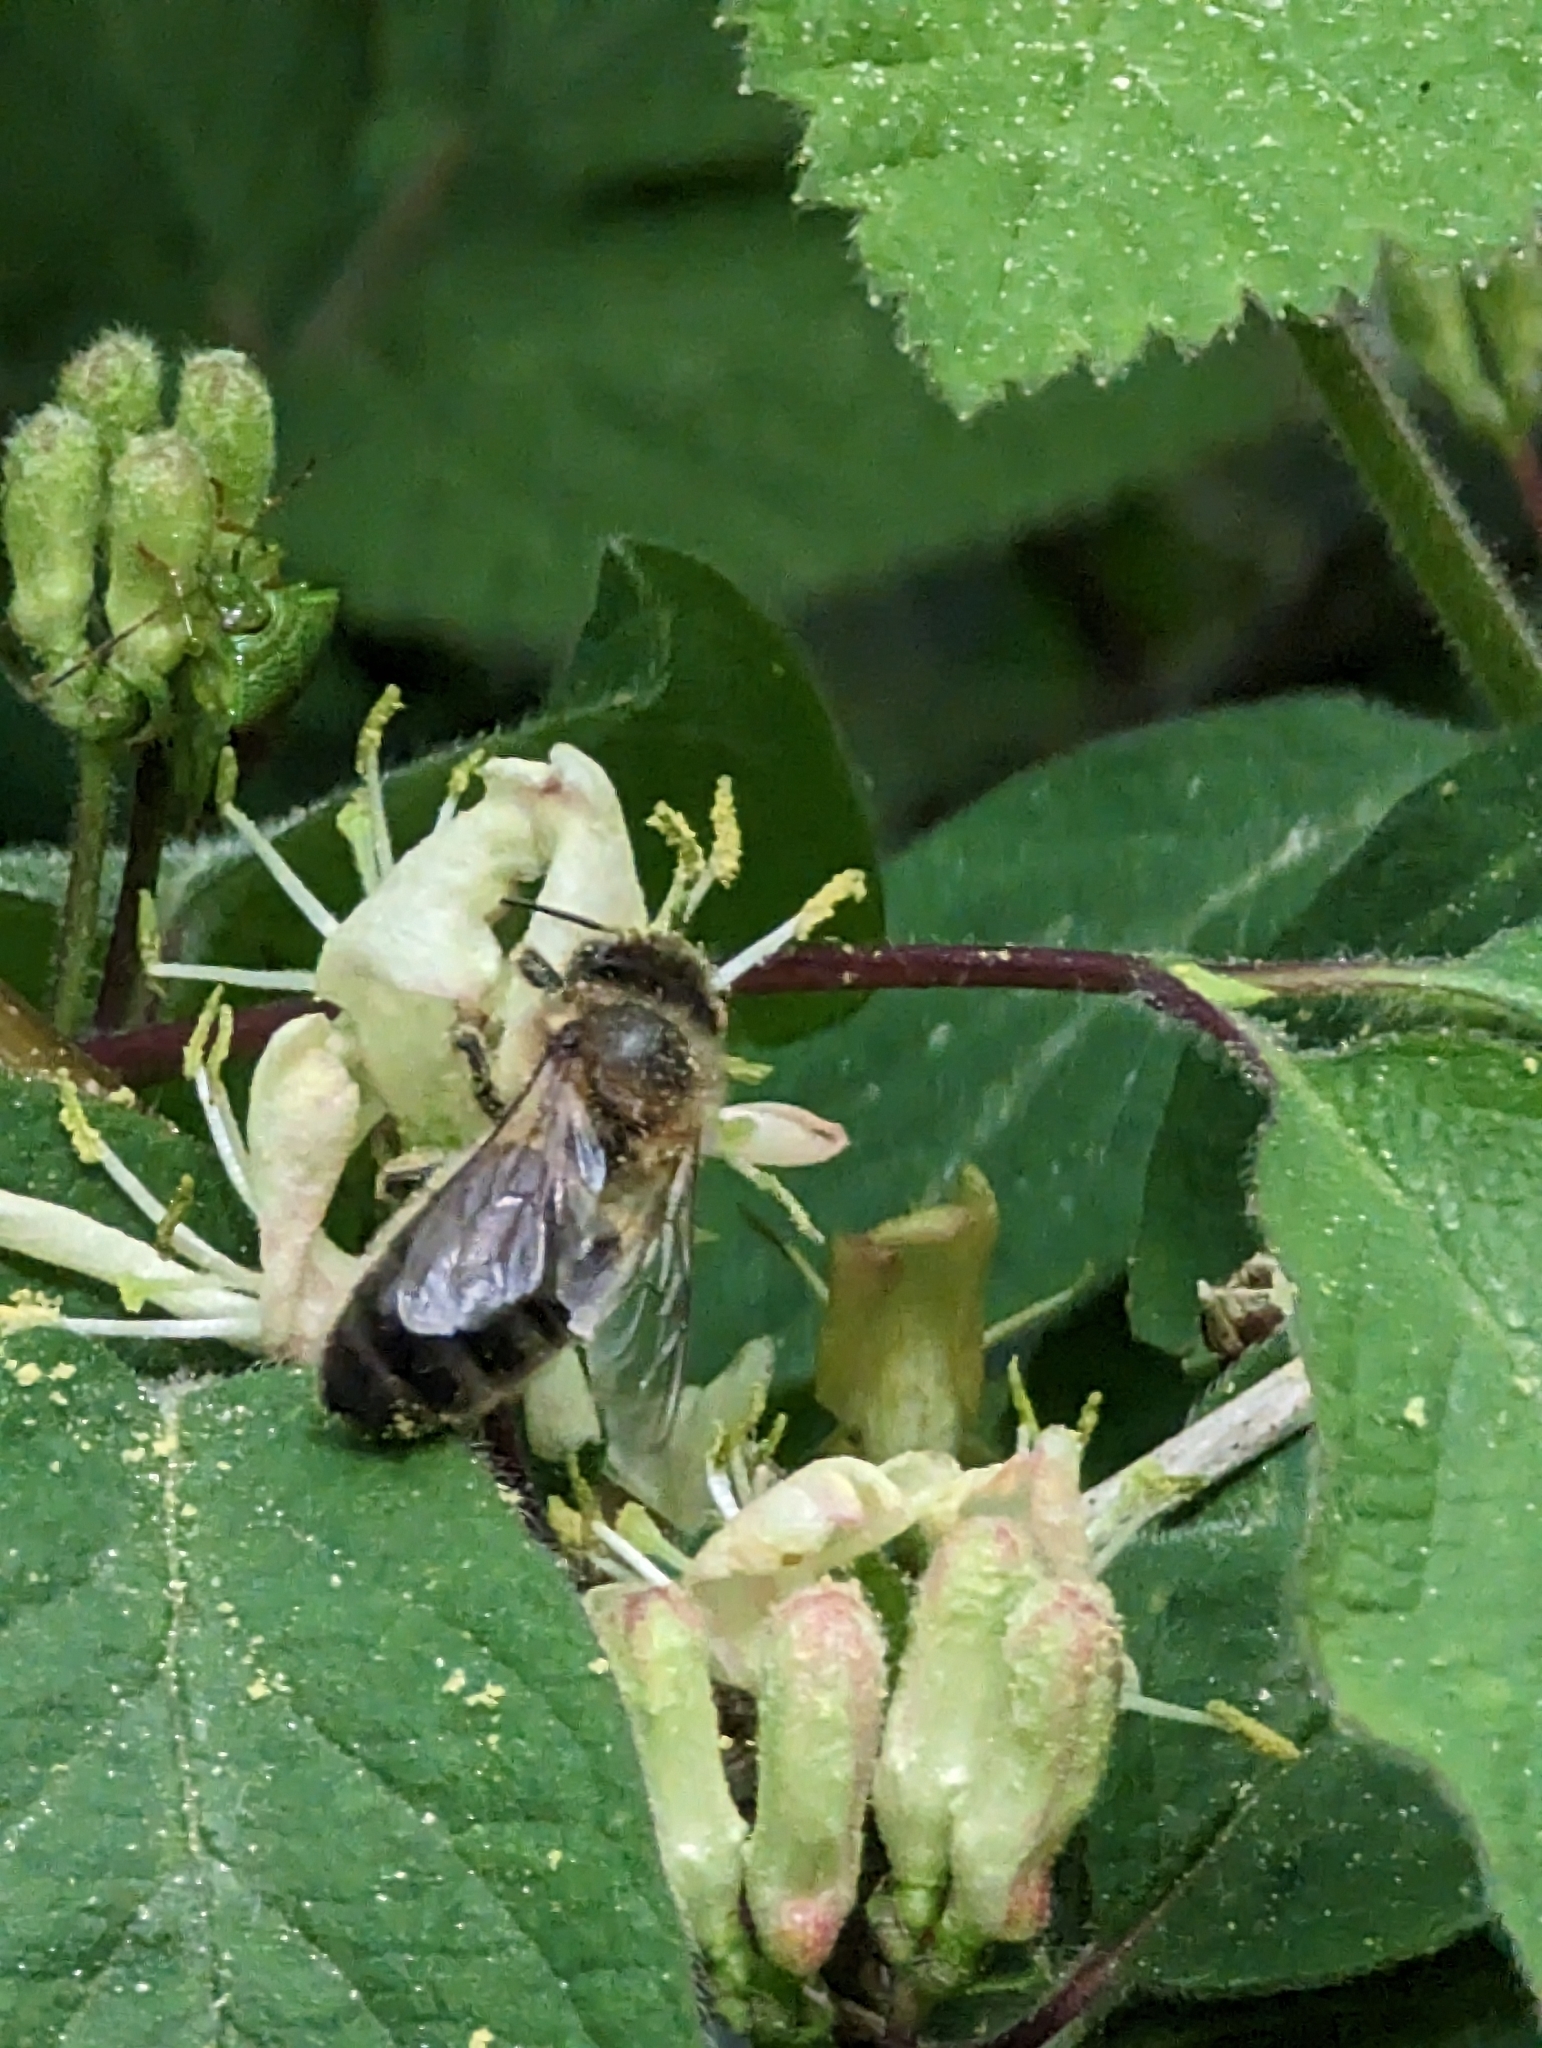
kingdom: Animalia
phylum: Arthropoda
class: Insecta
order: Hymenoptera
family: Apidae
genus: Apis
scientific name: Apis mellifera
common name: Honey bee
